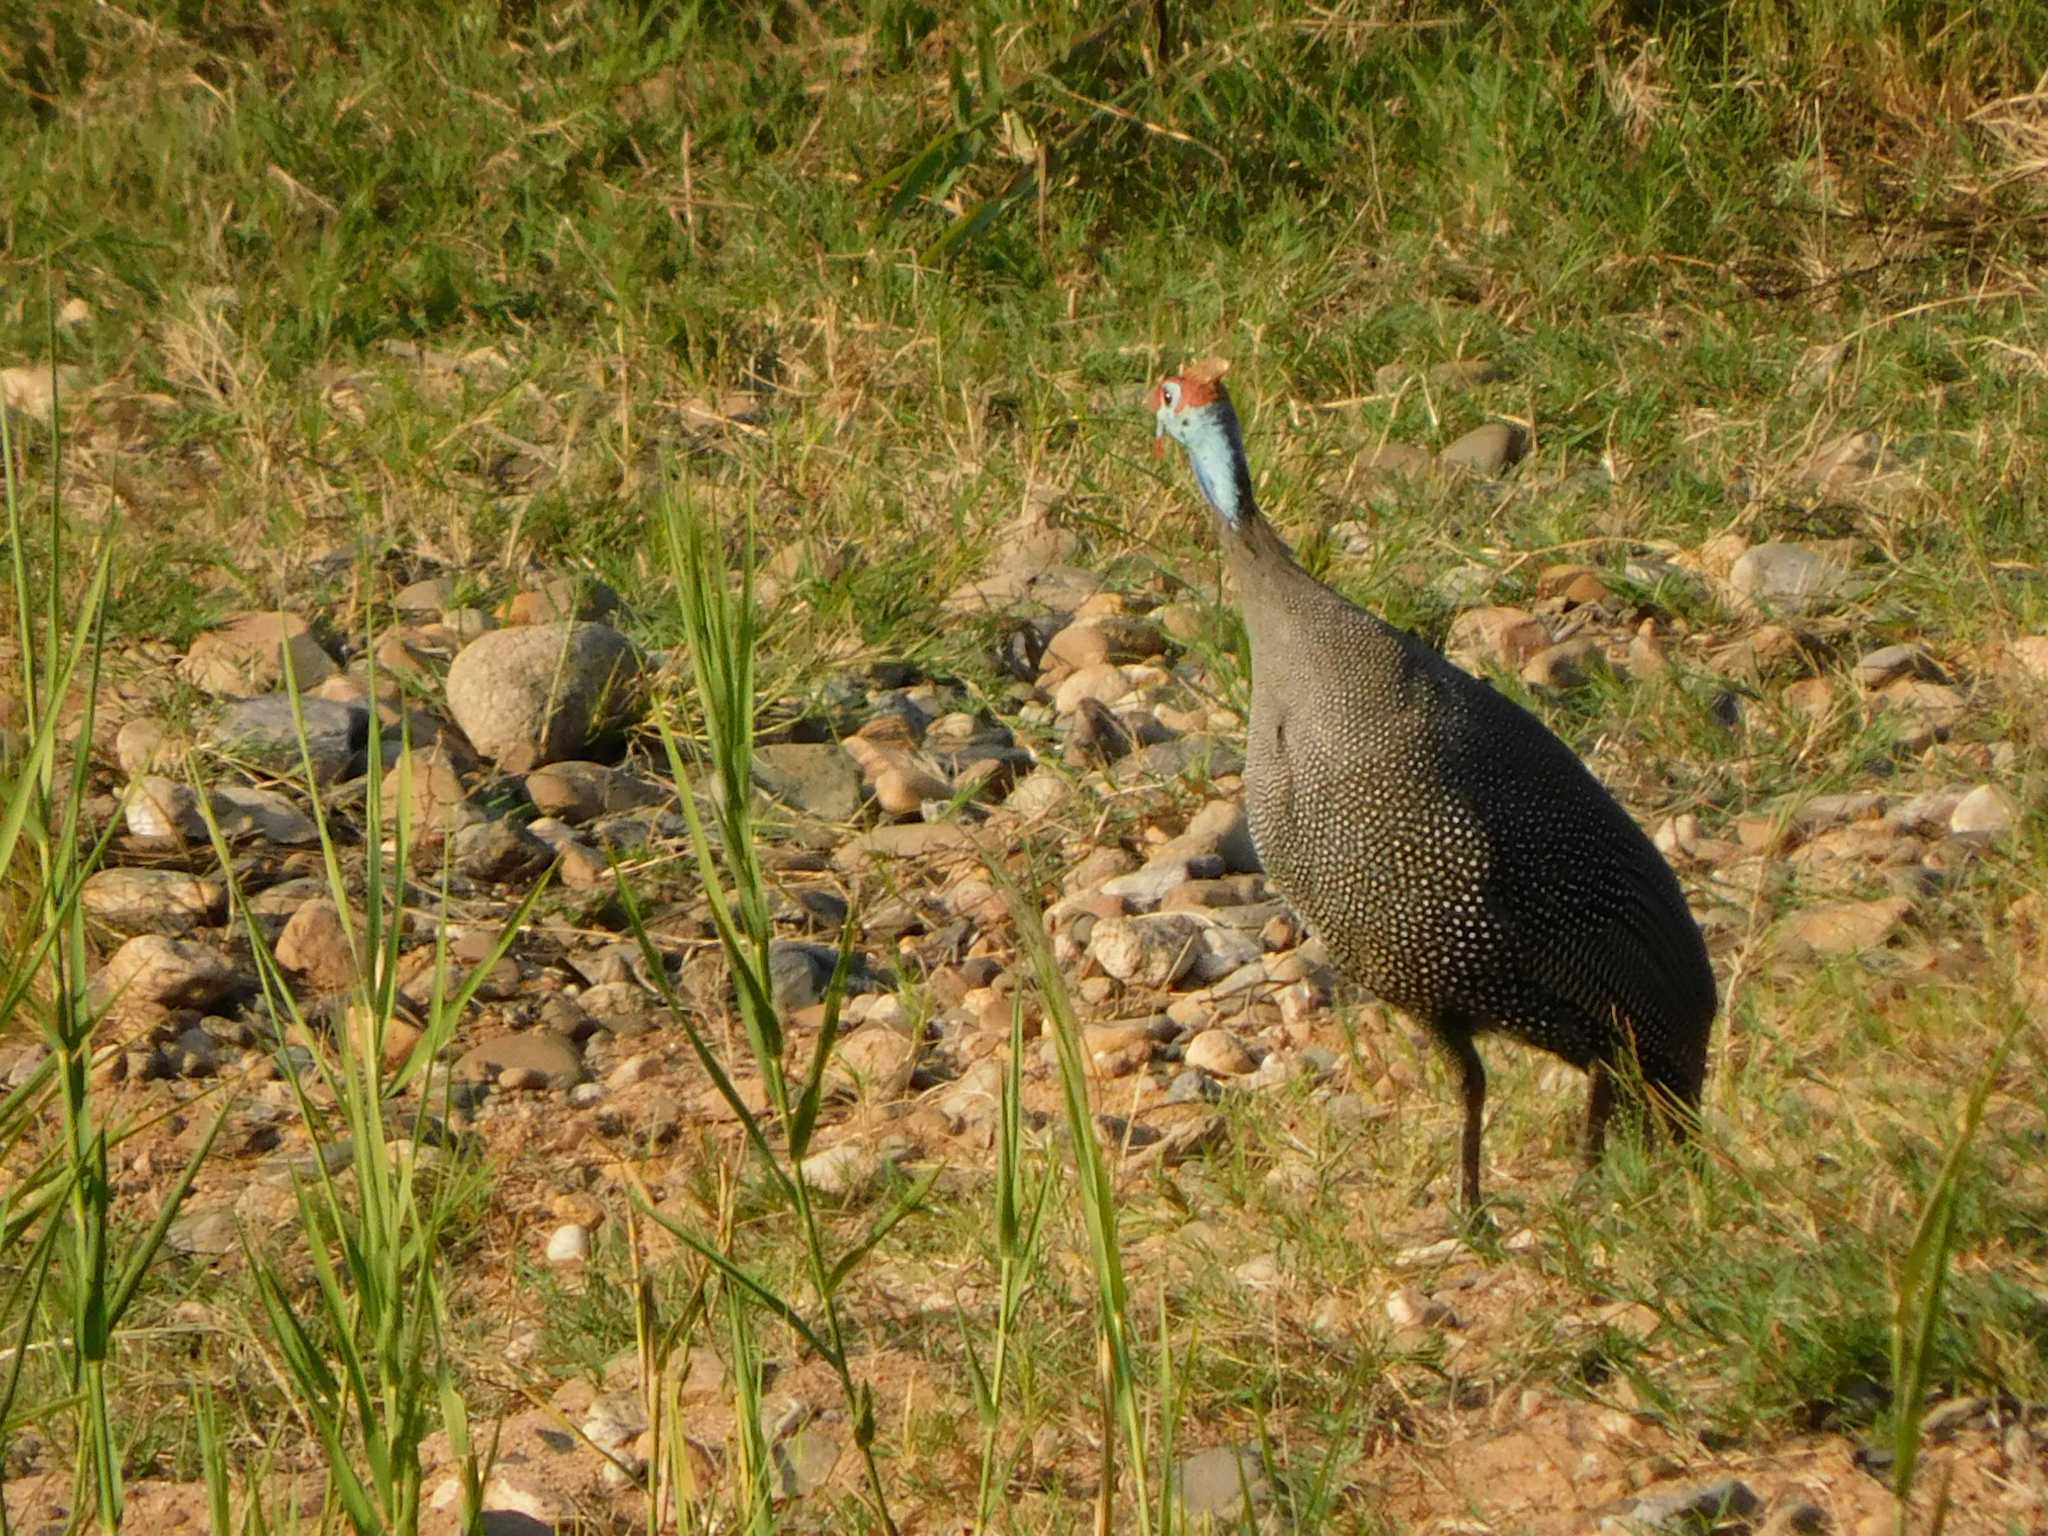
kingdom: Animalia
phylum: Chordata
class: Aves
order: Galliformes
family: Numididae
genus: Numida
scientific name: Numida meleagris
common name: Helmeted guineafowl
